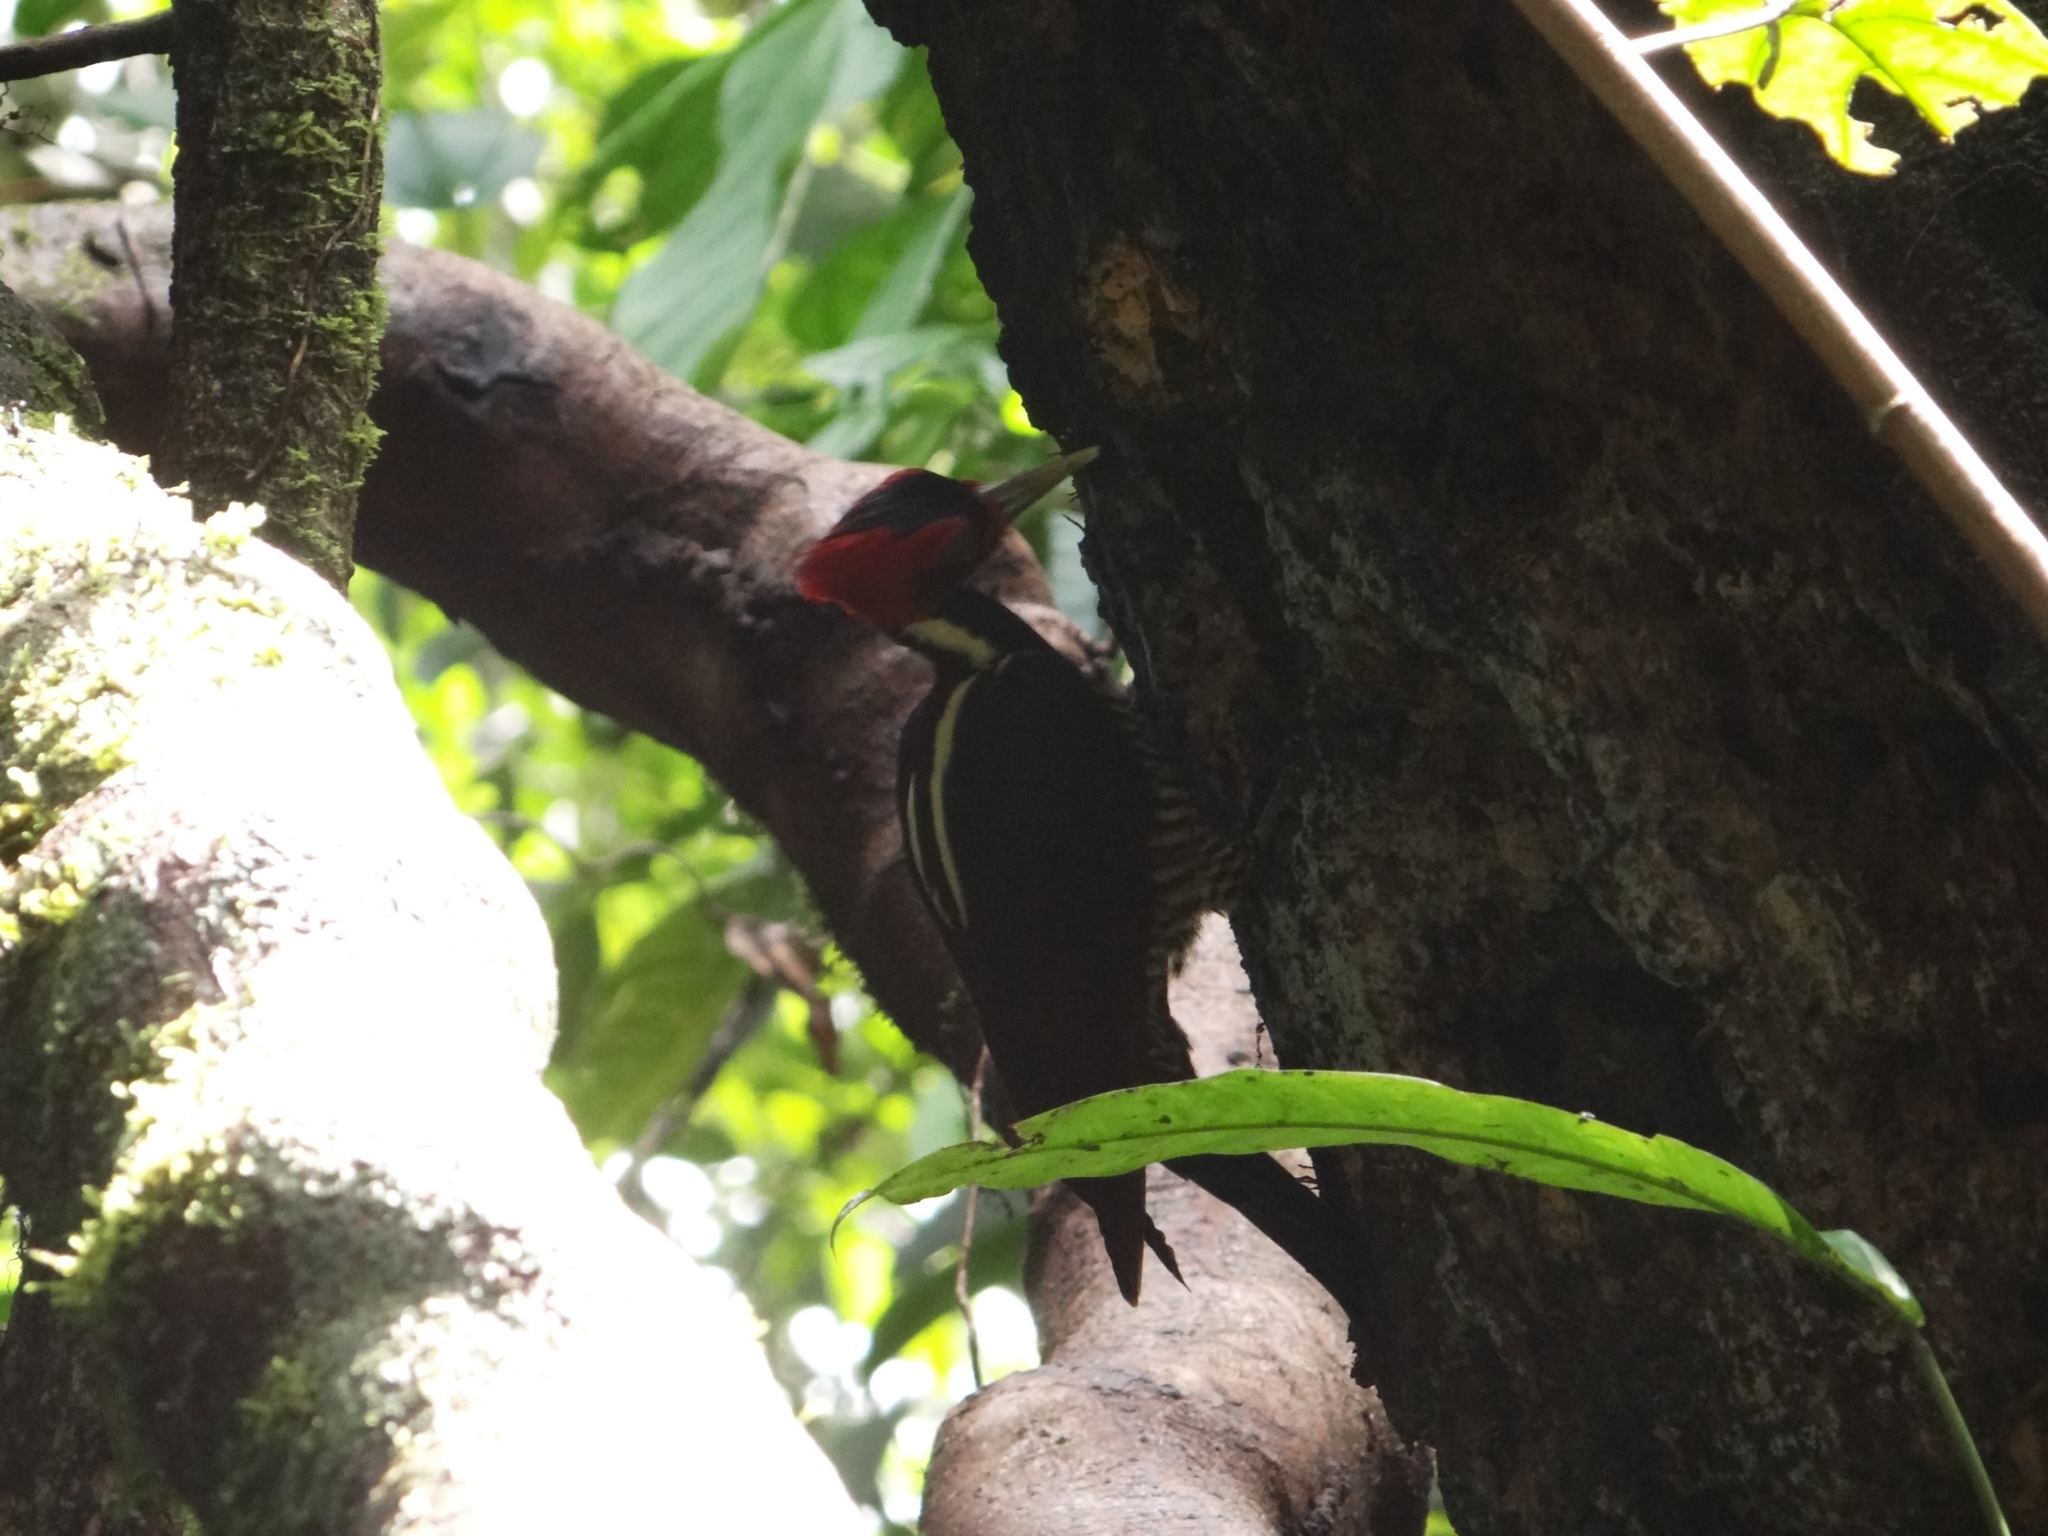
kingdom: Animalia
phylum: Chordata
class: Aves
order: Piciformes
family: Picidae
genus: Campephilus
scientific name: Campephilus guatemalensis
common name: Pale-billed woodpecker
